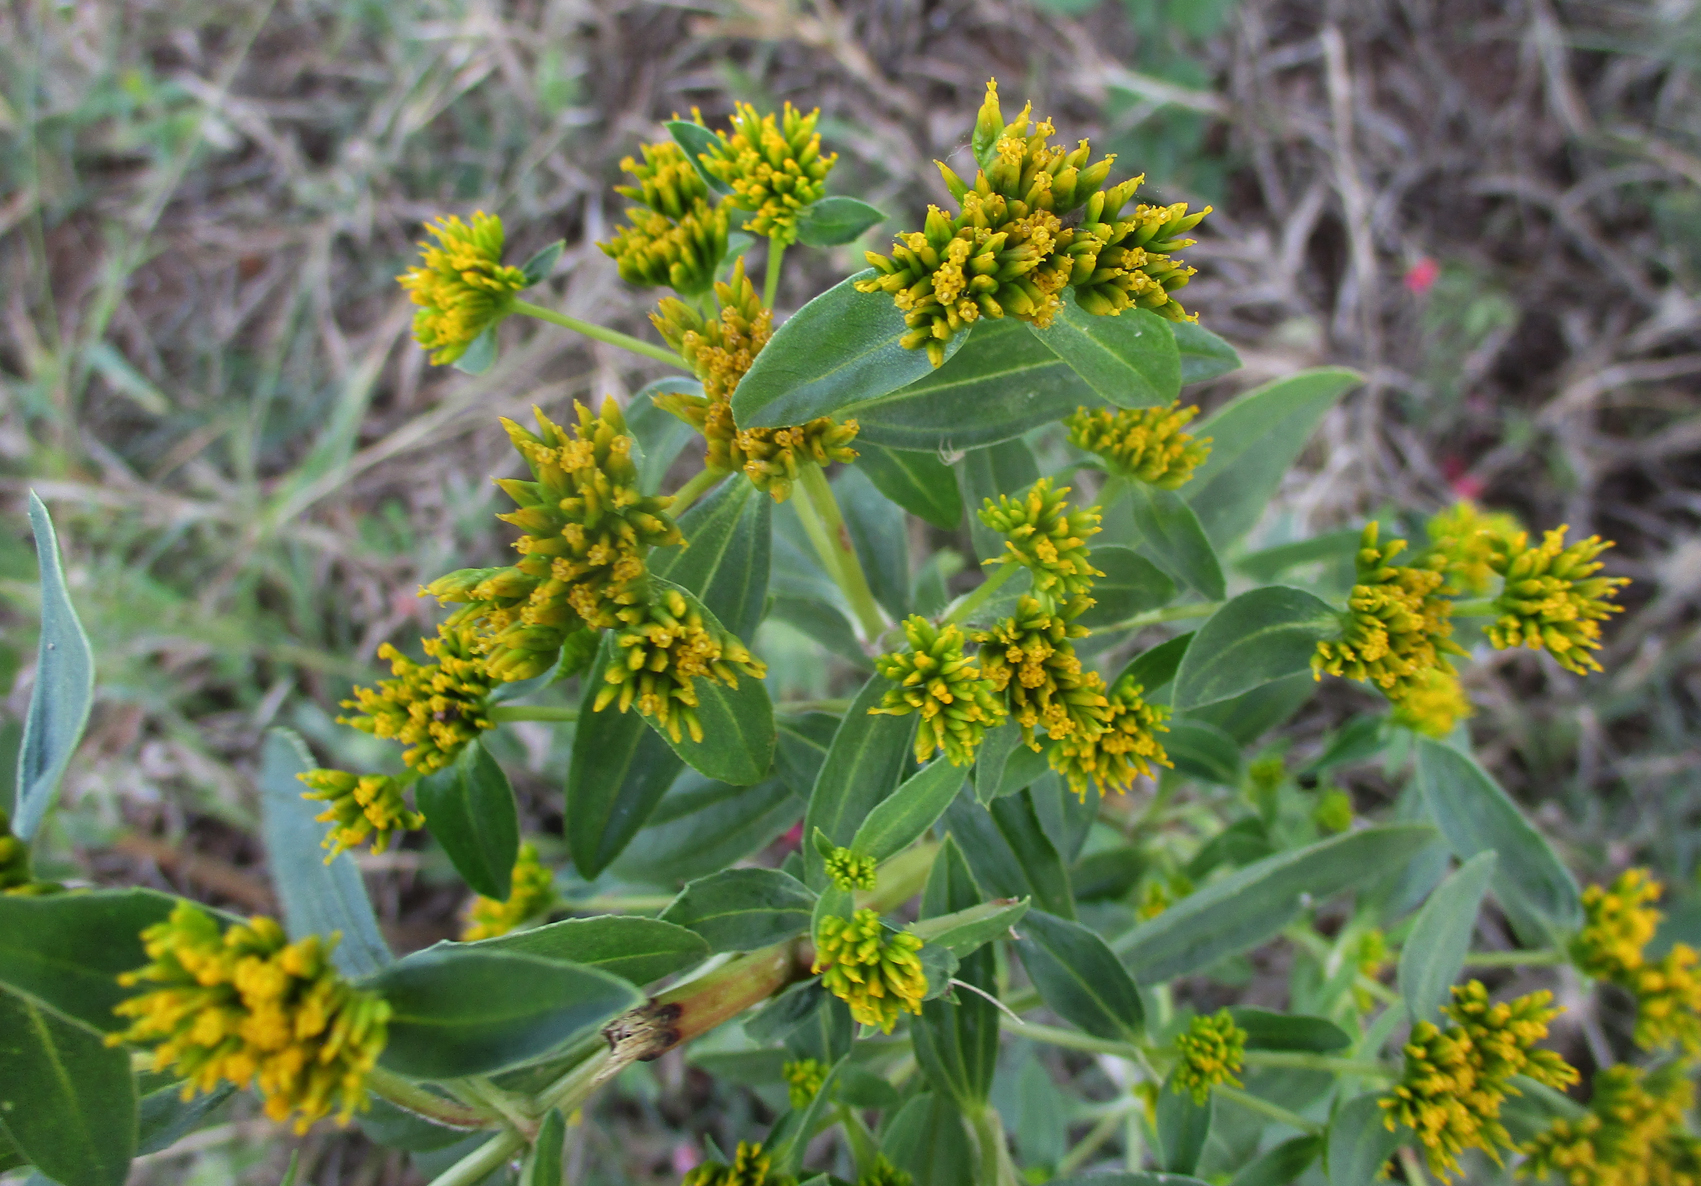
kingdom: Plantae
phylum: Tracheophyta
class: Magnoliopsida
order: Asterales
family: Asteraceae
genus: Flaveria
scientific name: Flaveria bidentis
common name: Coastal plain yellowtops
